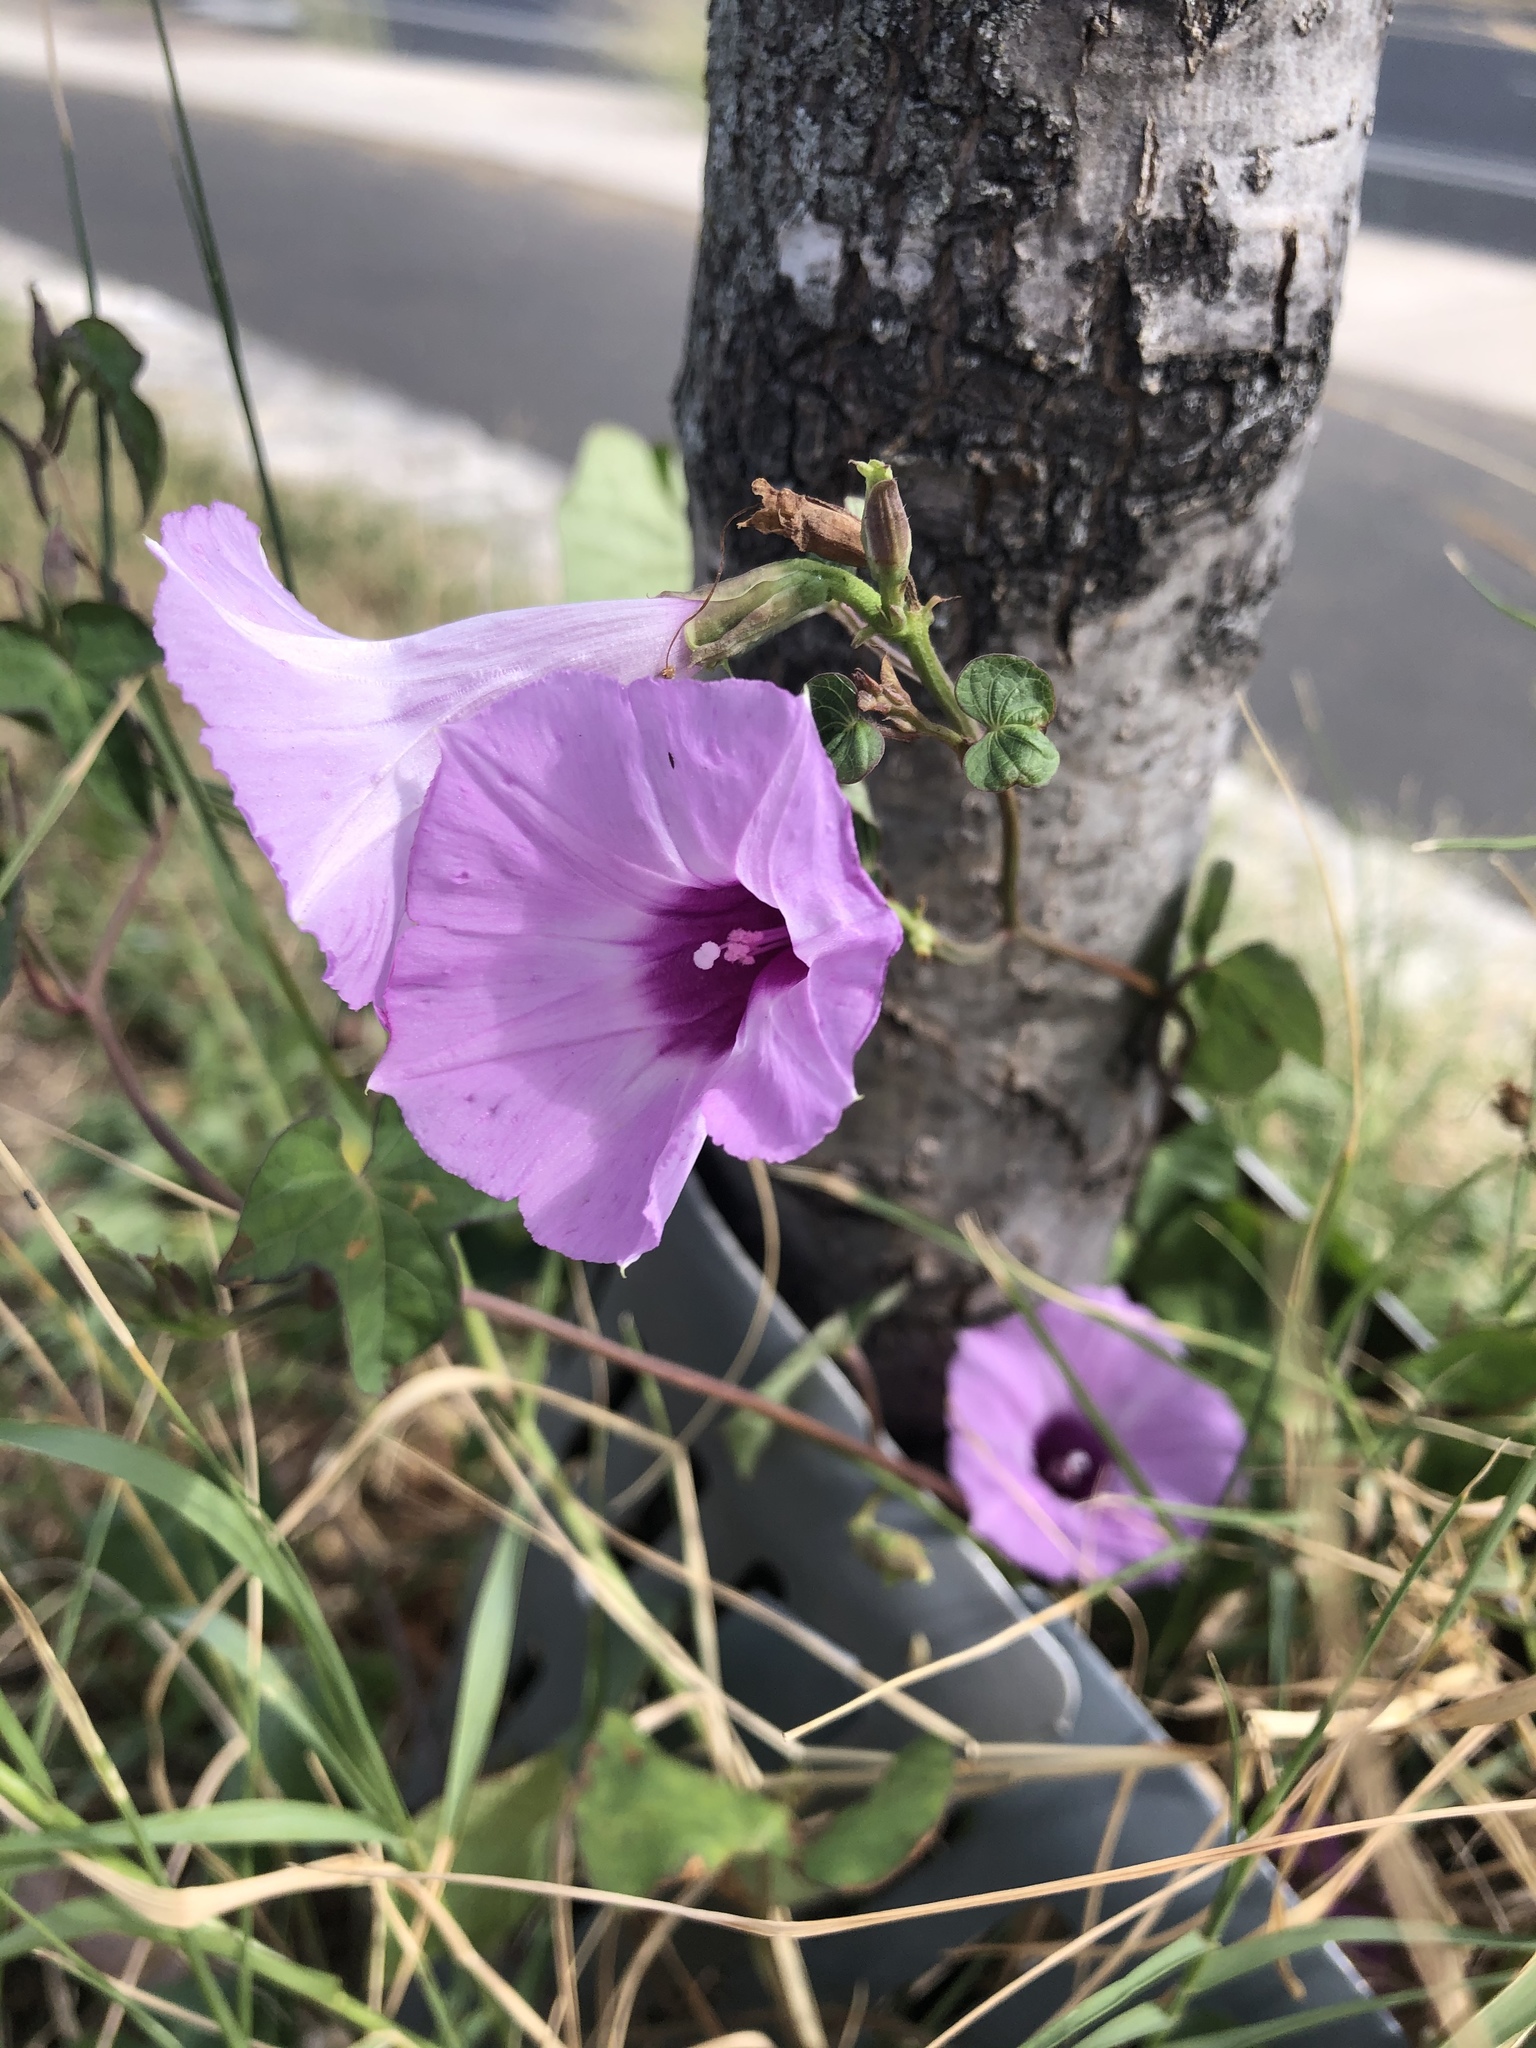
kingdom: Plantae
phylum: Tracheophyta
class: Magnoliopsida
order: Solanales
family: Convolvulaceae
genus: Ipomoea
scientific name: Ipomoea cordatotriloba
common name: Cotton morning glory
